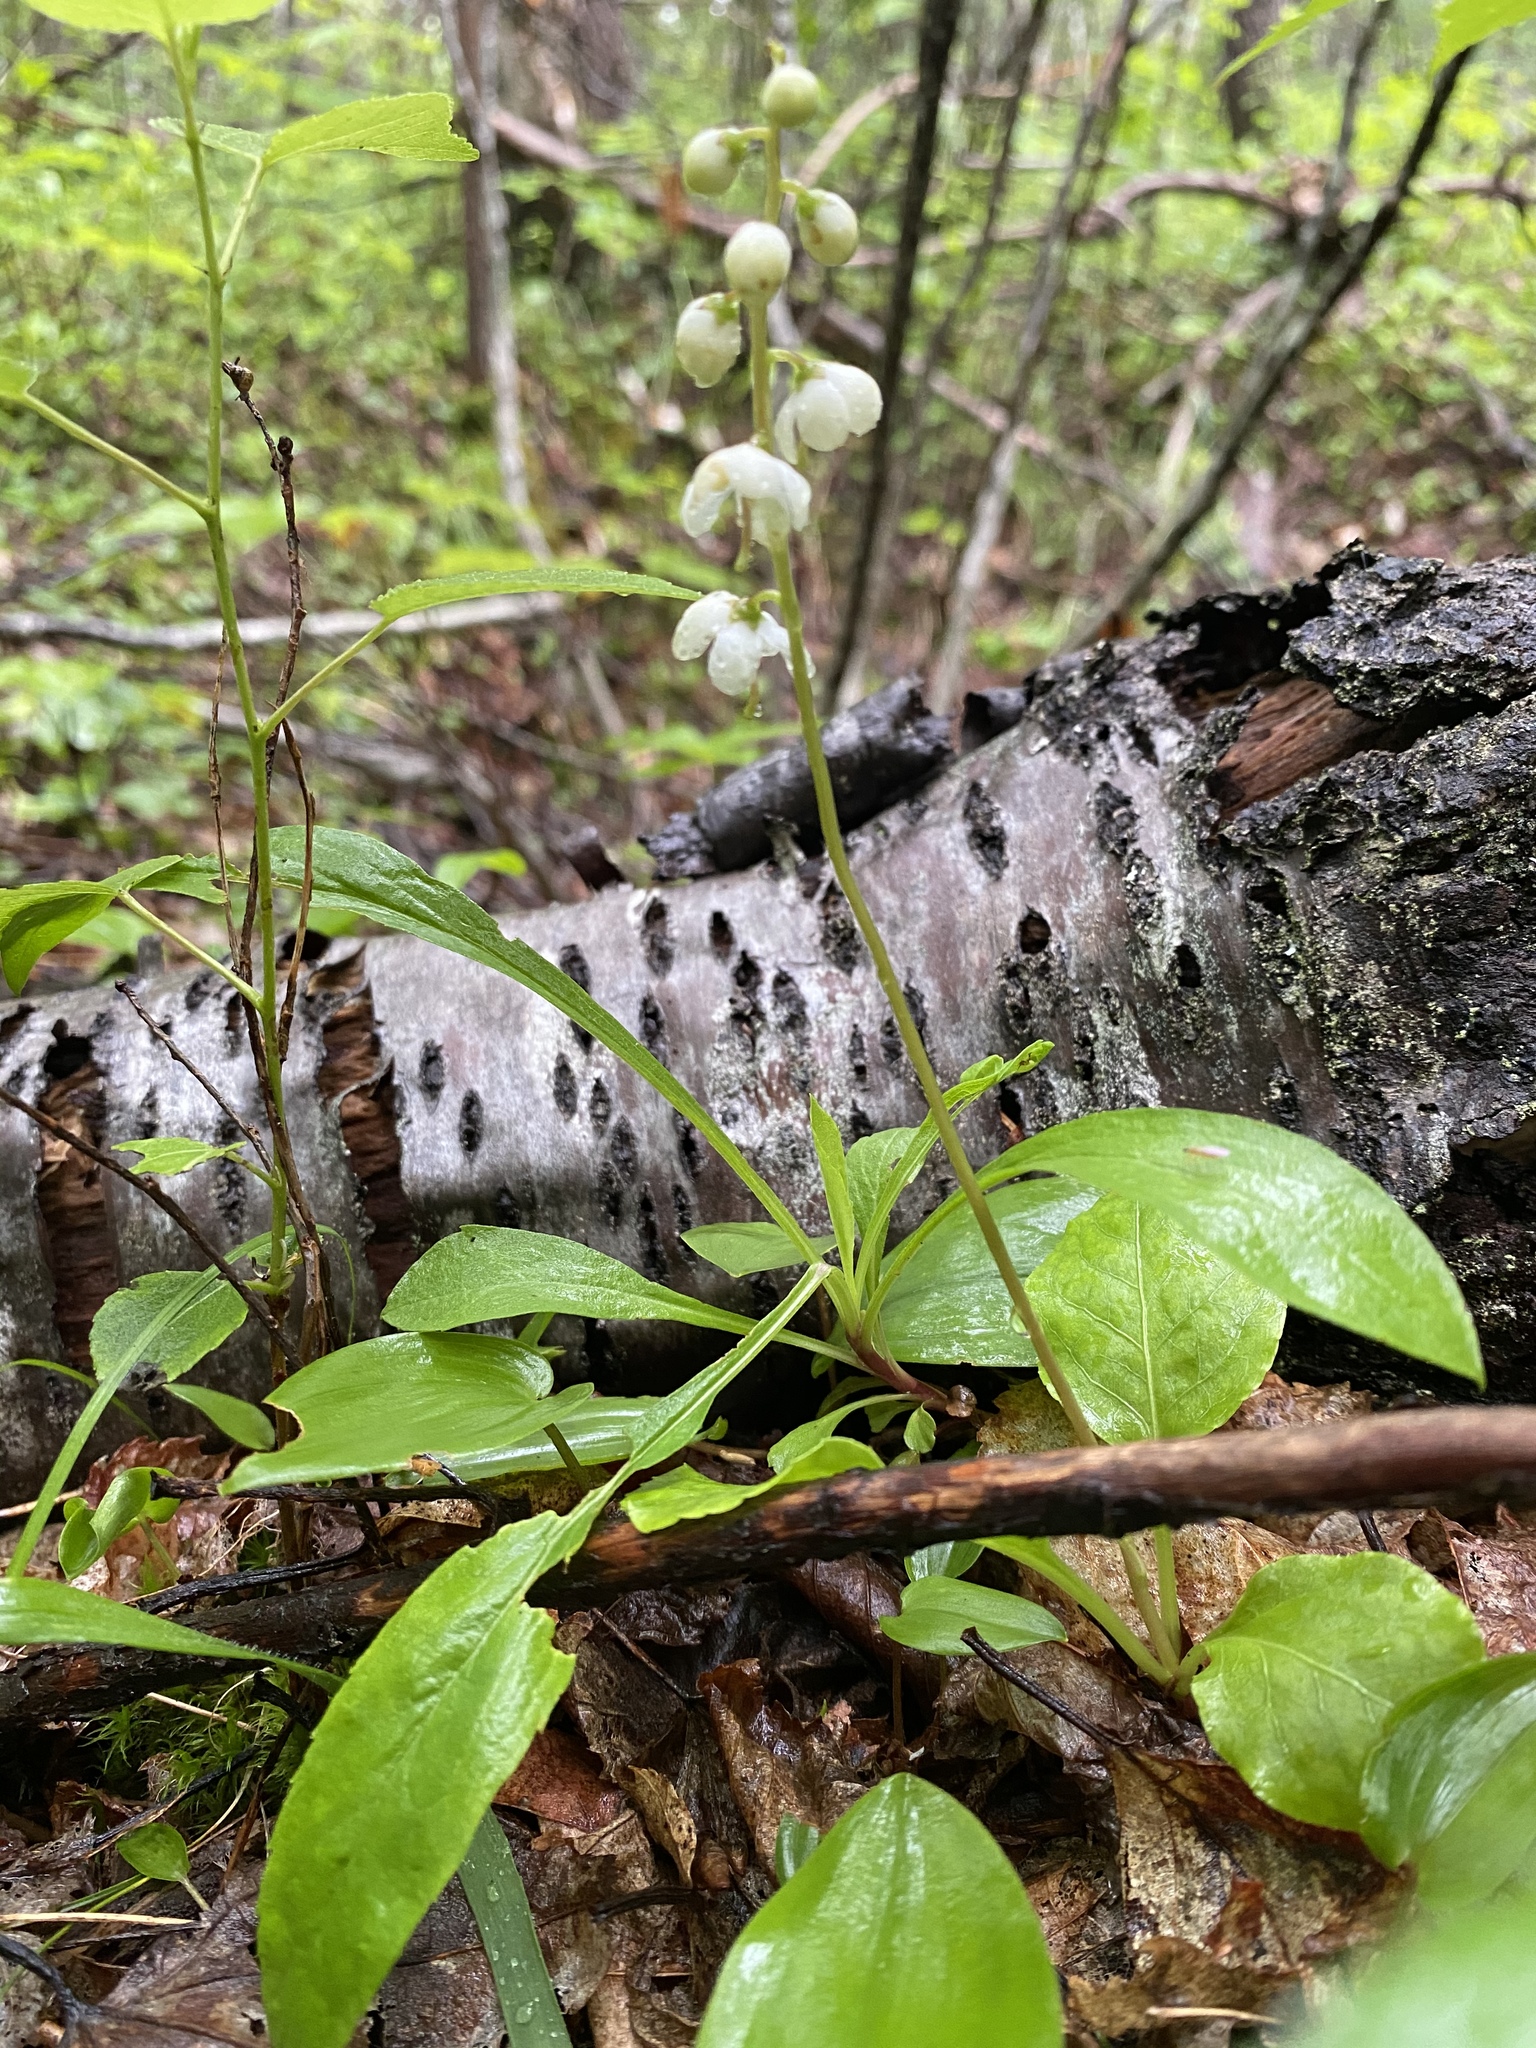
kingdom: Plantae
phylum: Tracheophyta
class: Magnoliopsida
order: Ericales
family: Ericaceae
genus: Pyrola
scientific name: Pyrola elliptica
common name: Shinleaf
